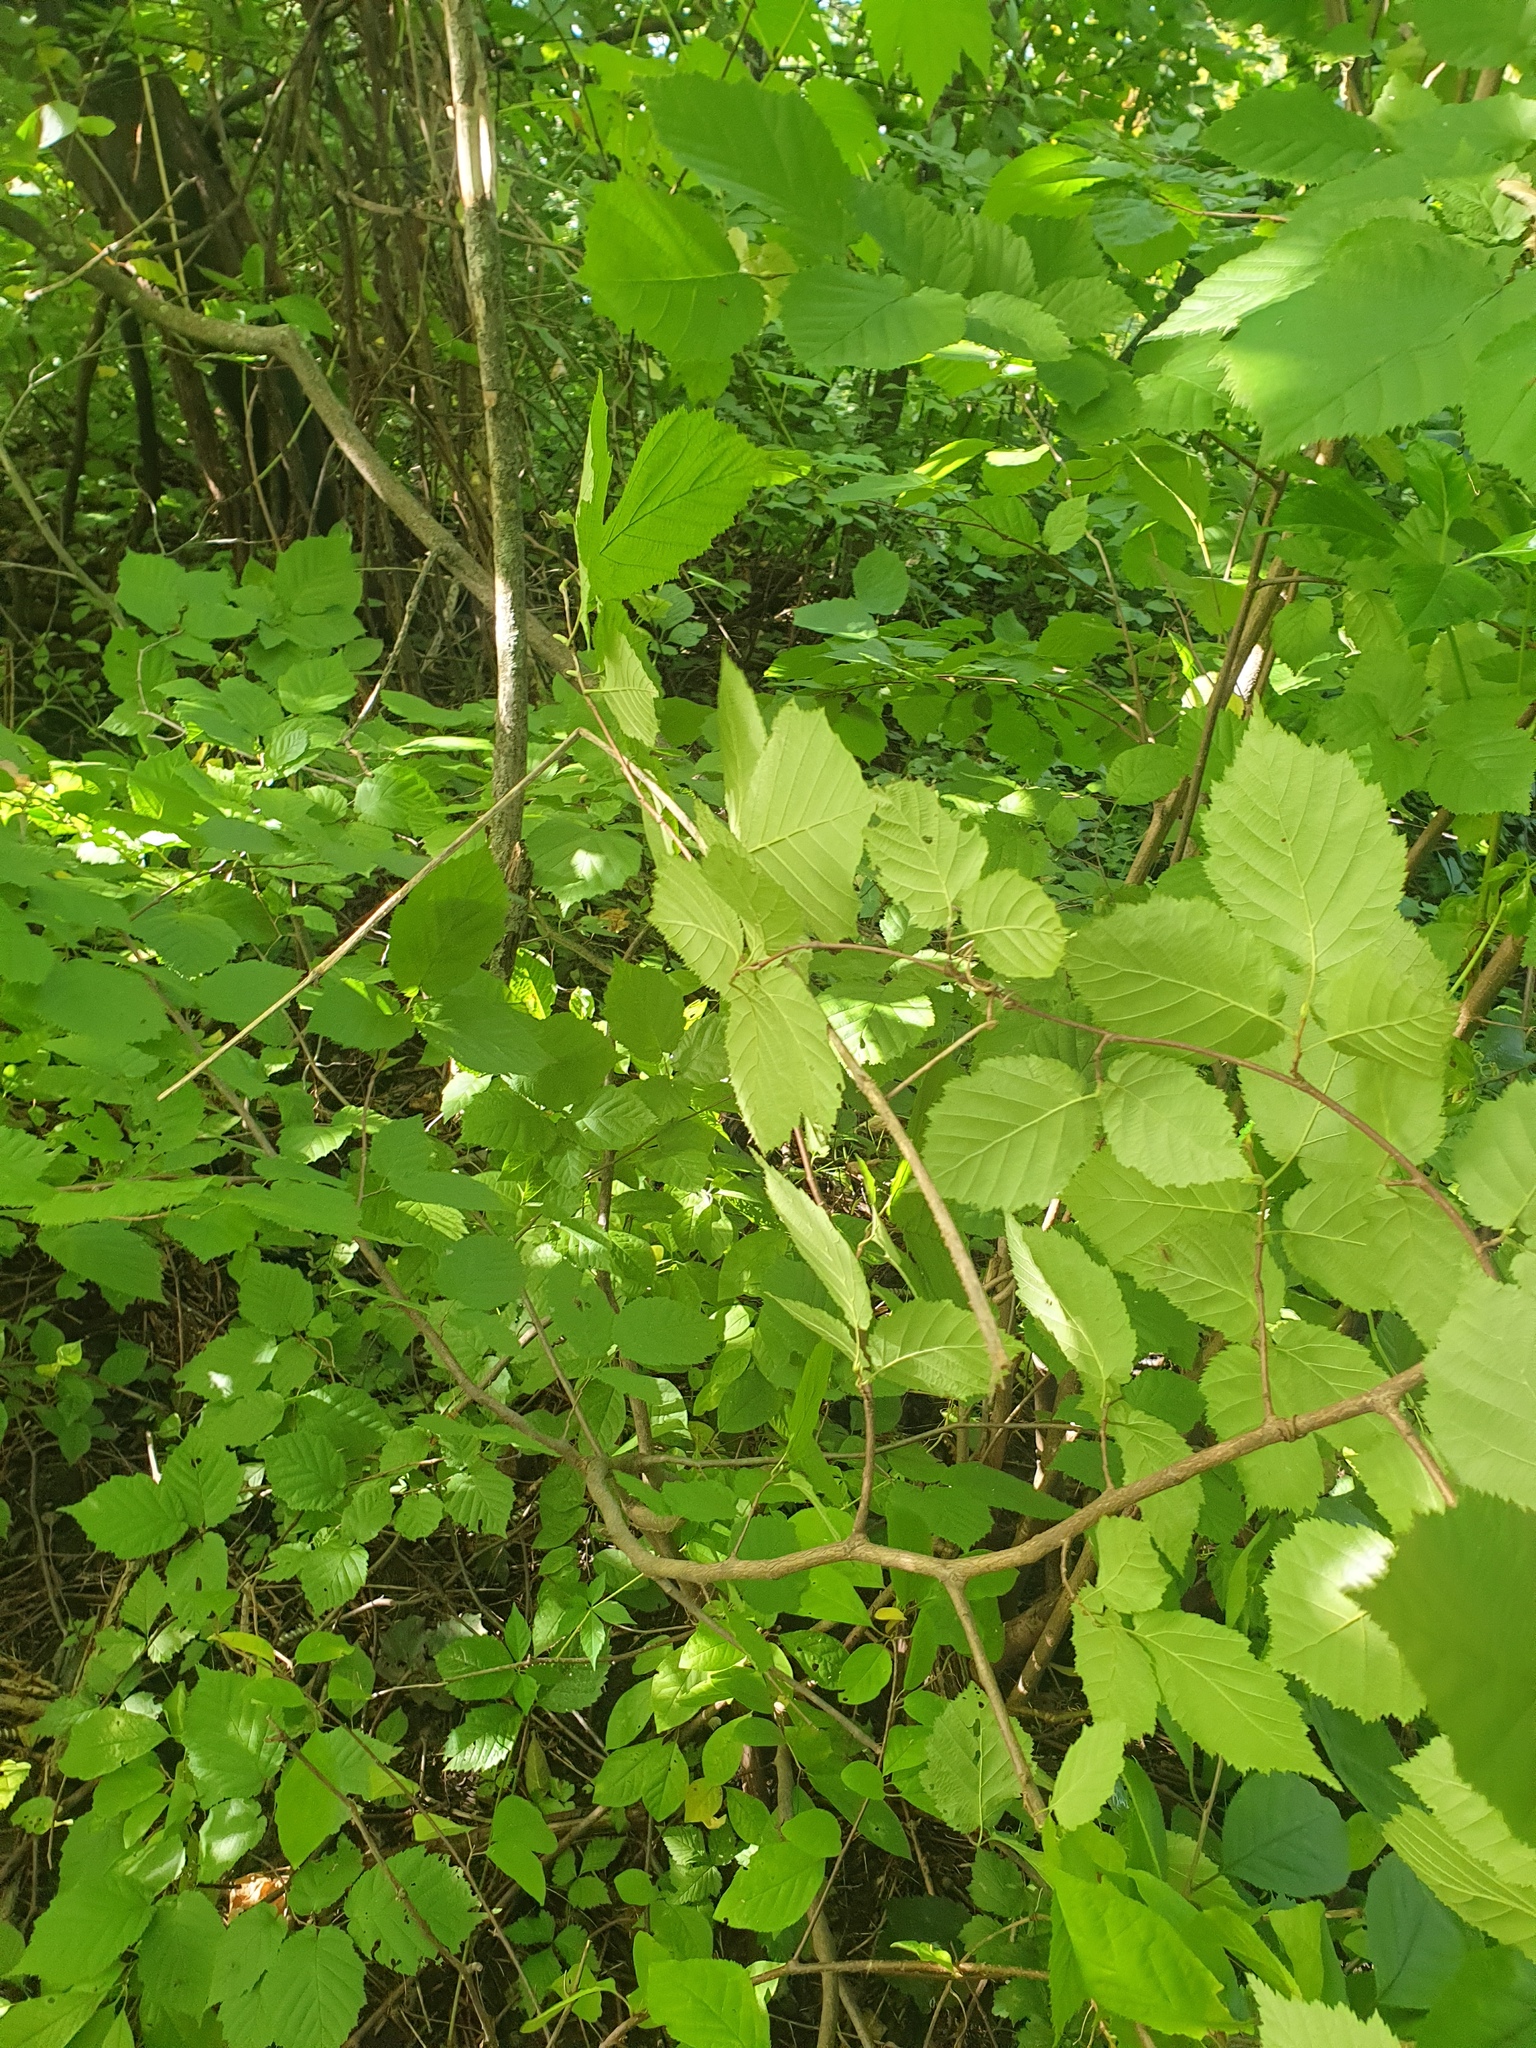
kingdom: Plantae
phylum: Tracheophyta
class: Magnoliopsida
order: Fagales
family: Betulaceae
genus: Corylus
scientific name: Corylus cornuta
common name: Beaked hazel
